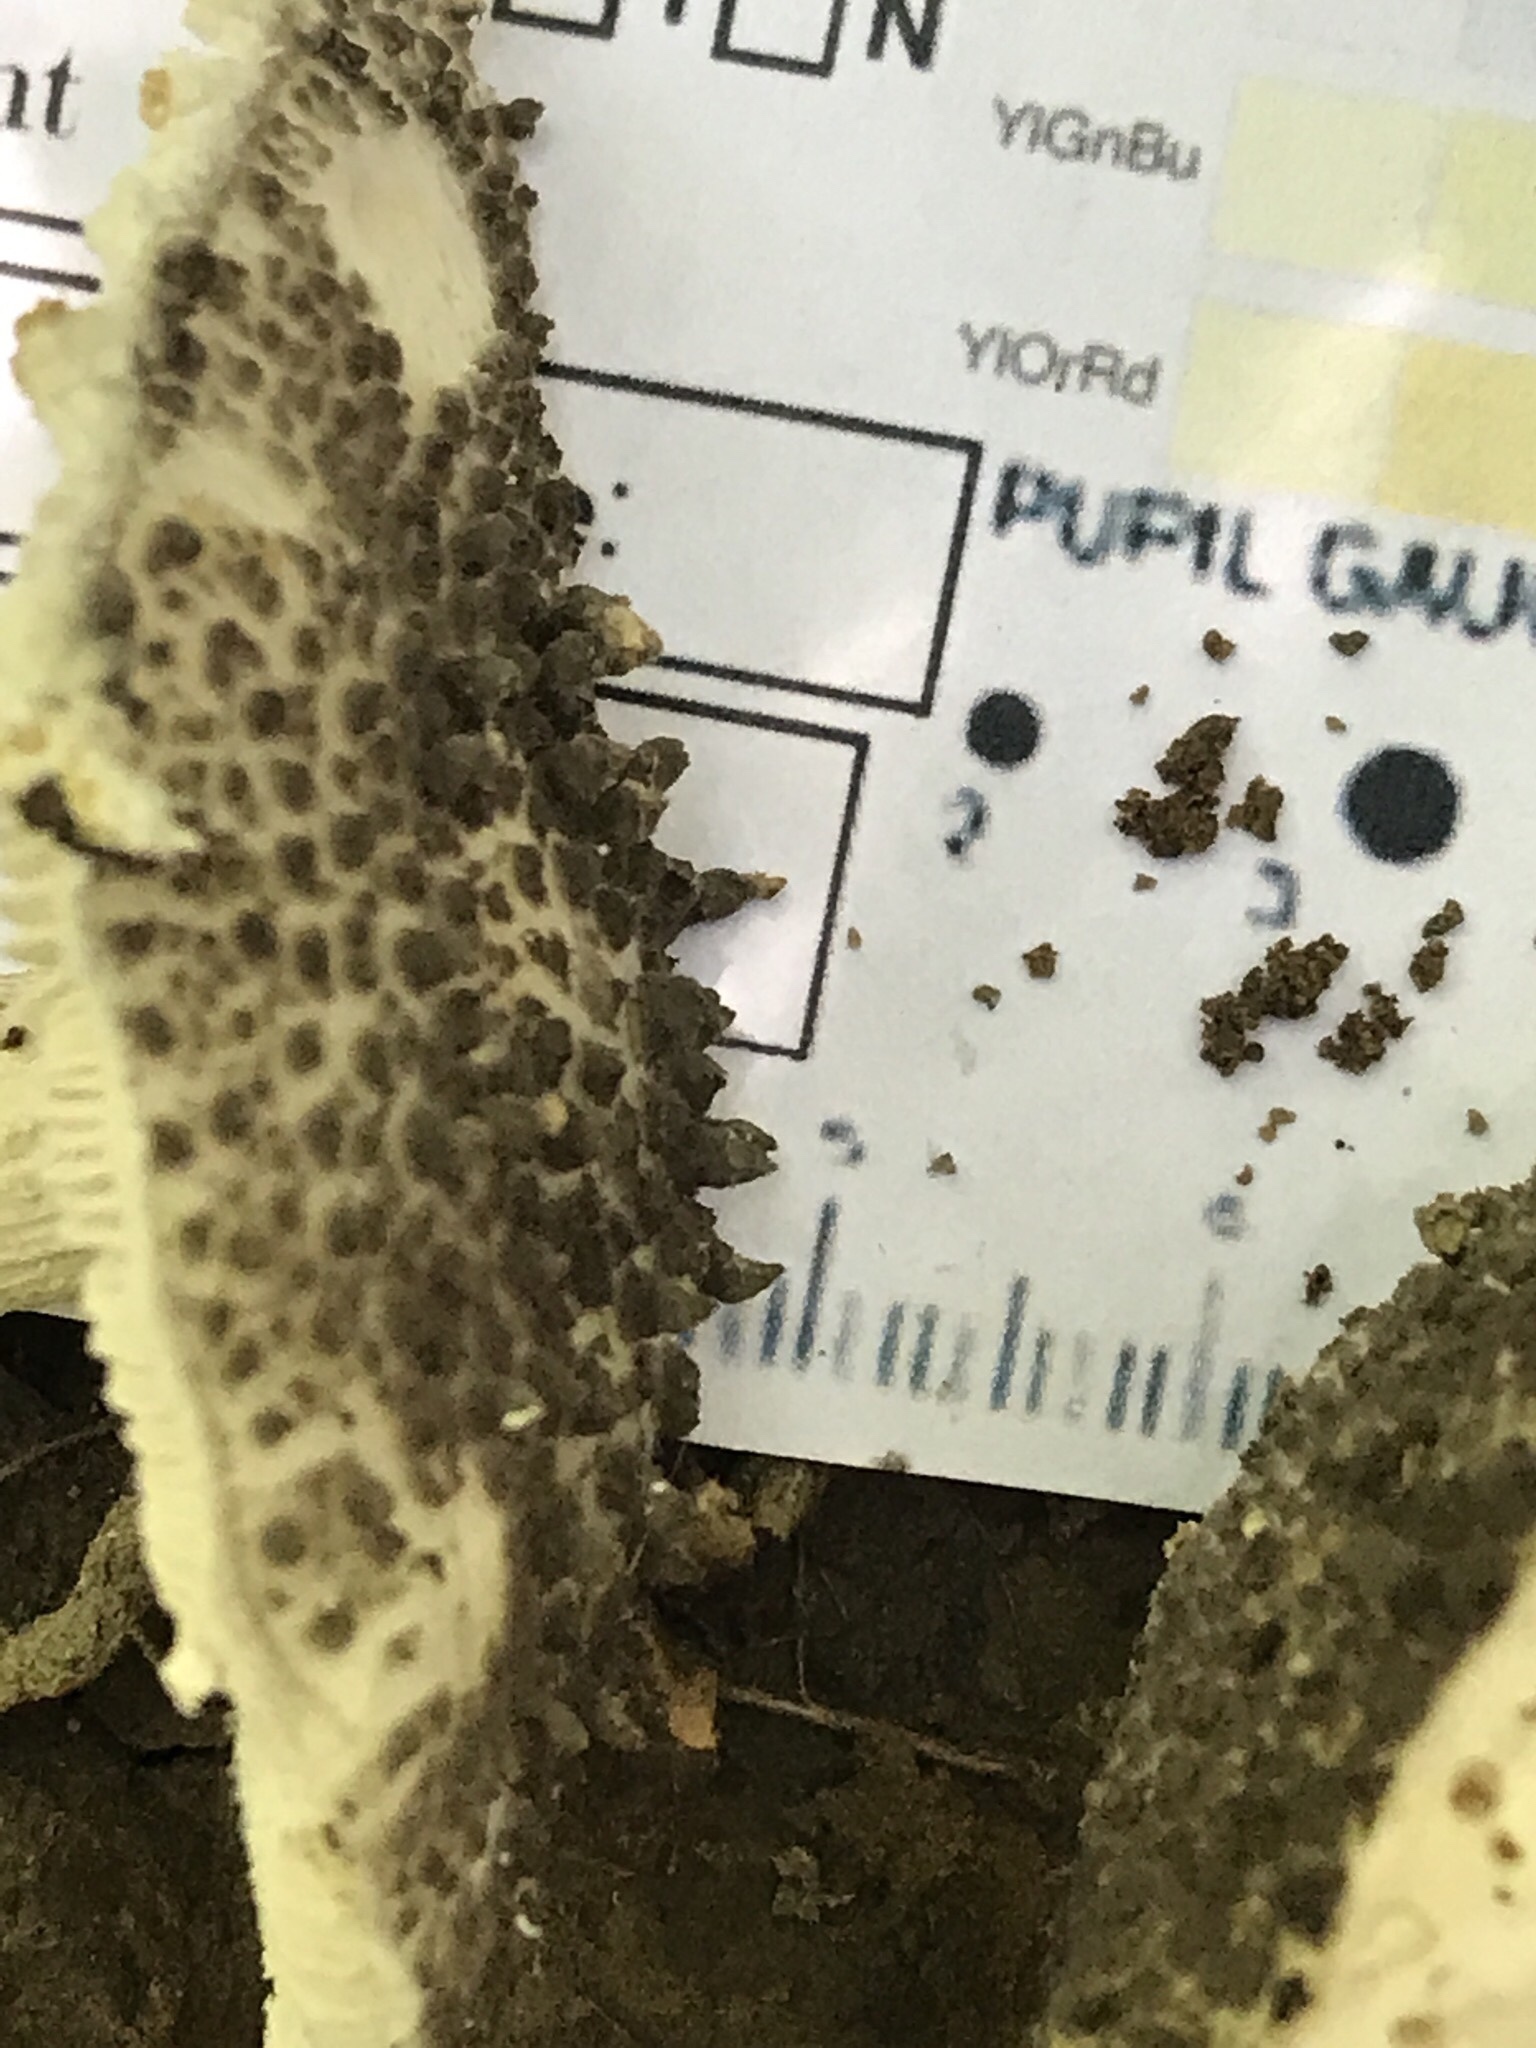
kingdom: Fungi
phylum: Basidiomycota
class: Agaricomycetes
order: Agaricales
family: Amanitaceae
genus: Amanita
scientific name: Amanita onusta
